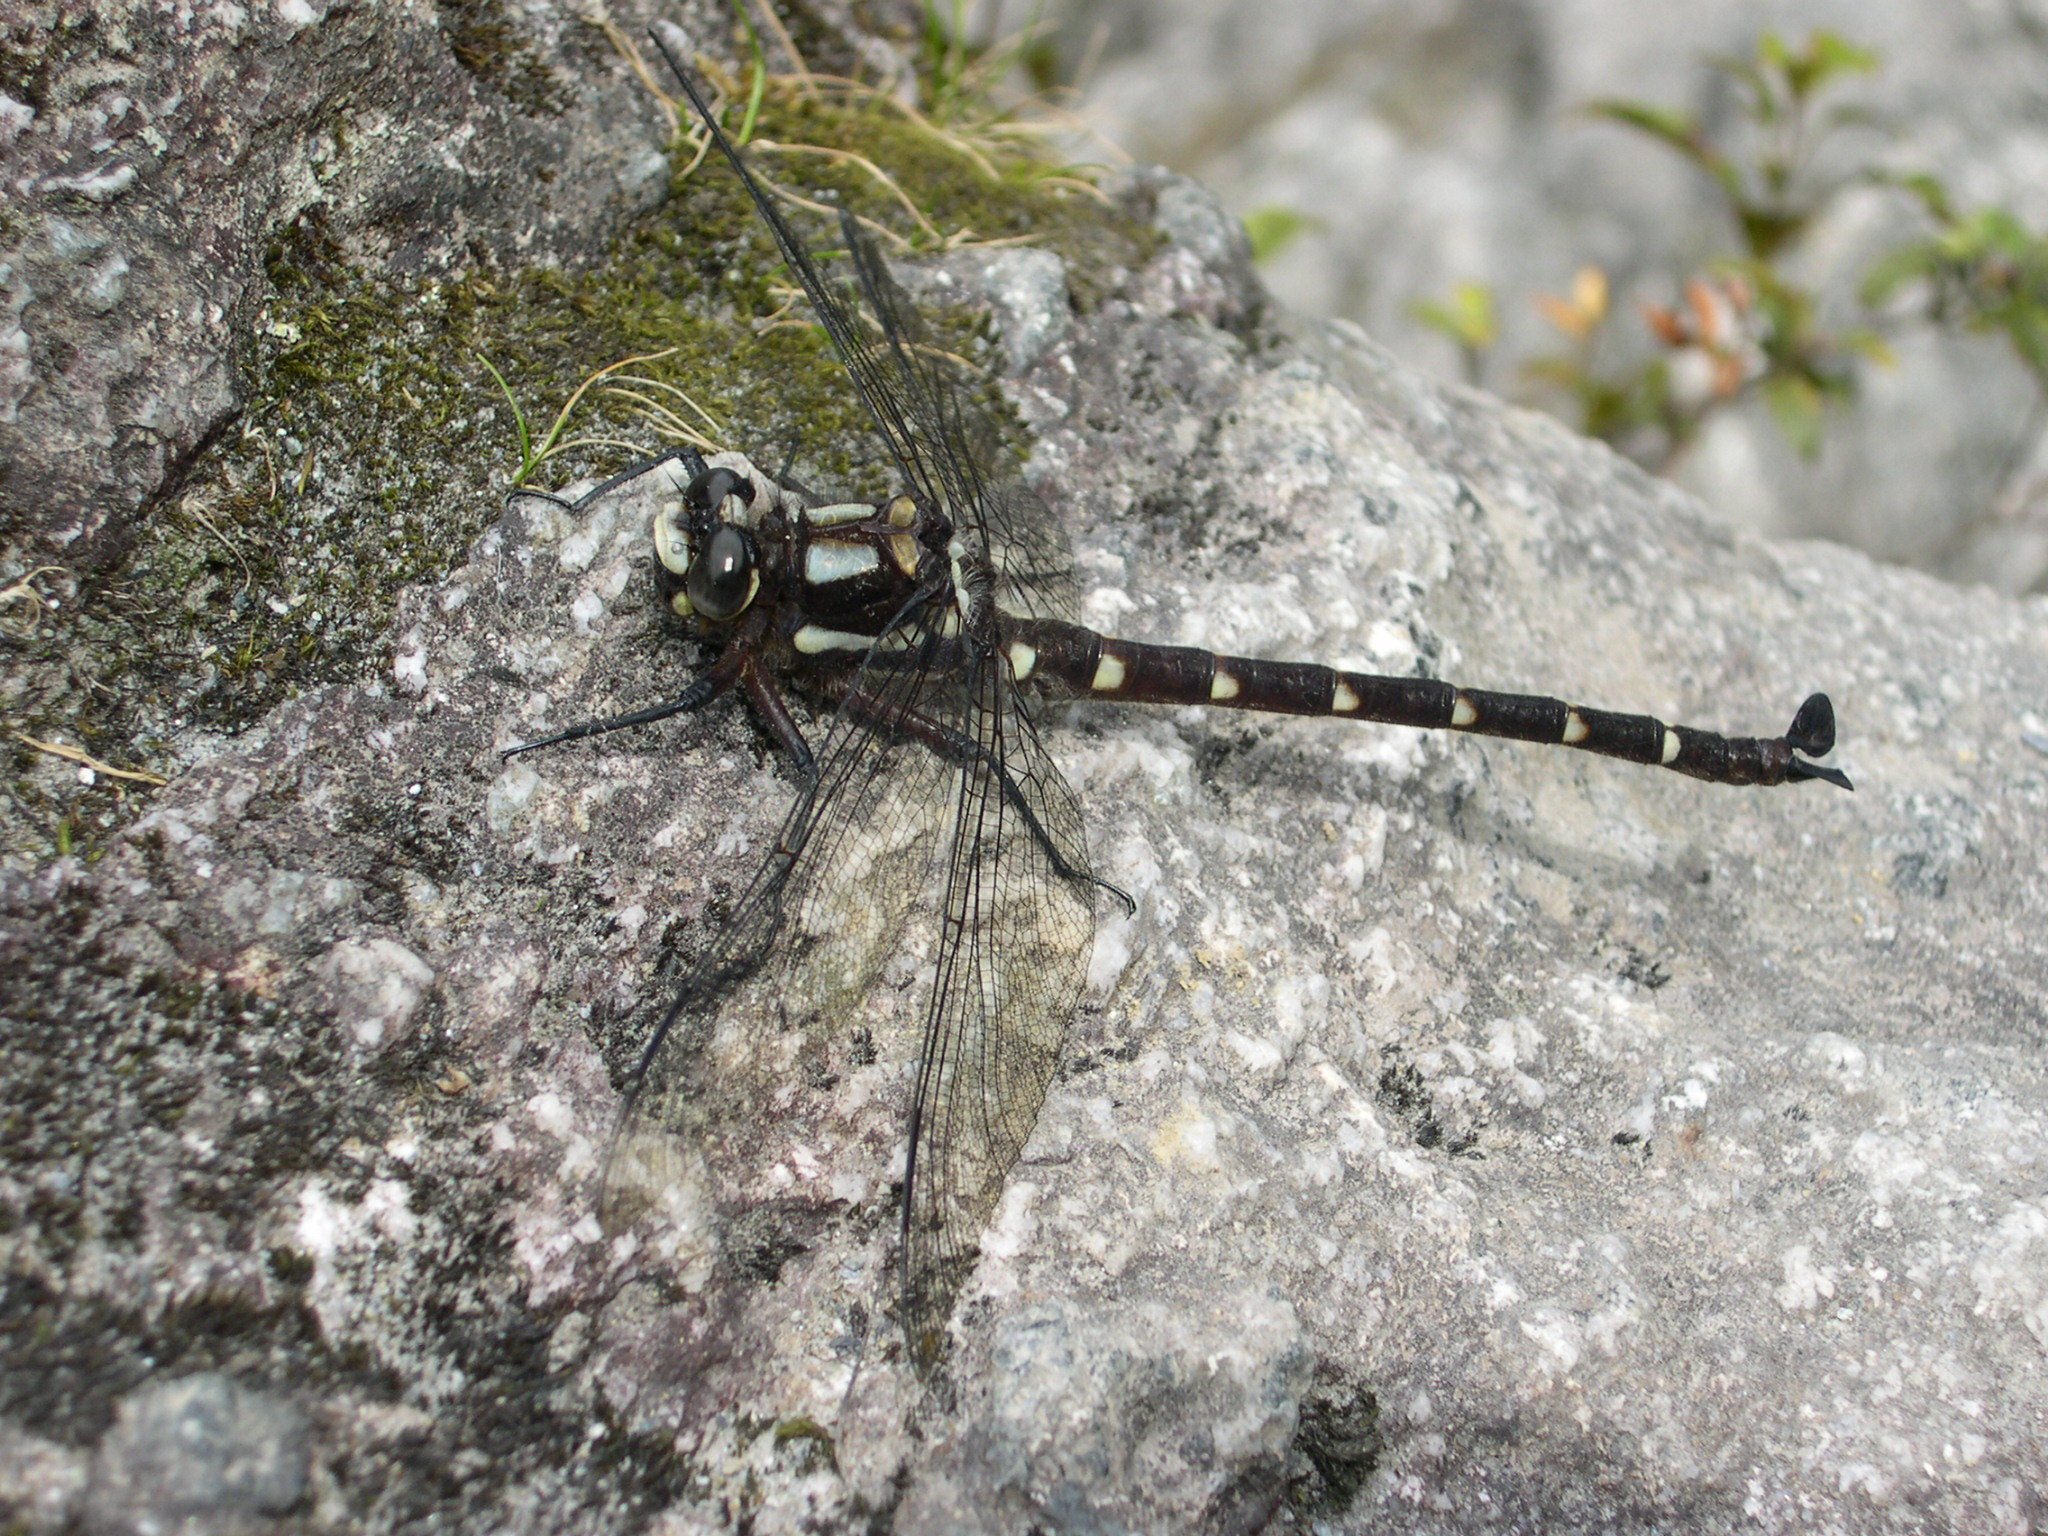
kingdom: Animalia
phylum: Arthropoda
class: Insecta
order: Odonata
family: Petaluridae
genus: Uropetala
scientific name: Uropetala carovei
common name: Bush giant dragonfly
